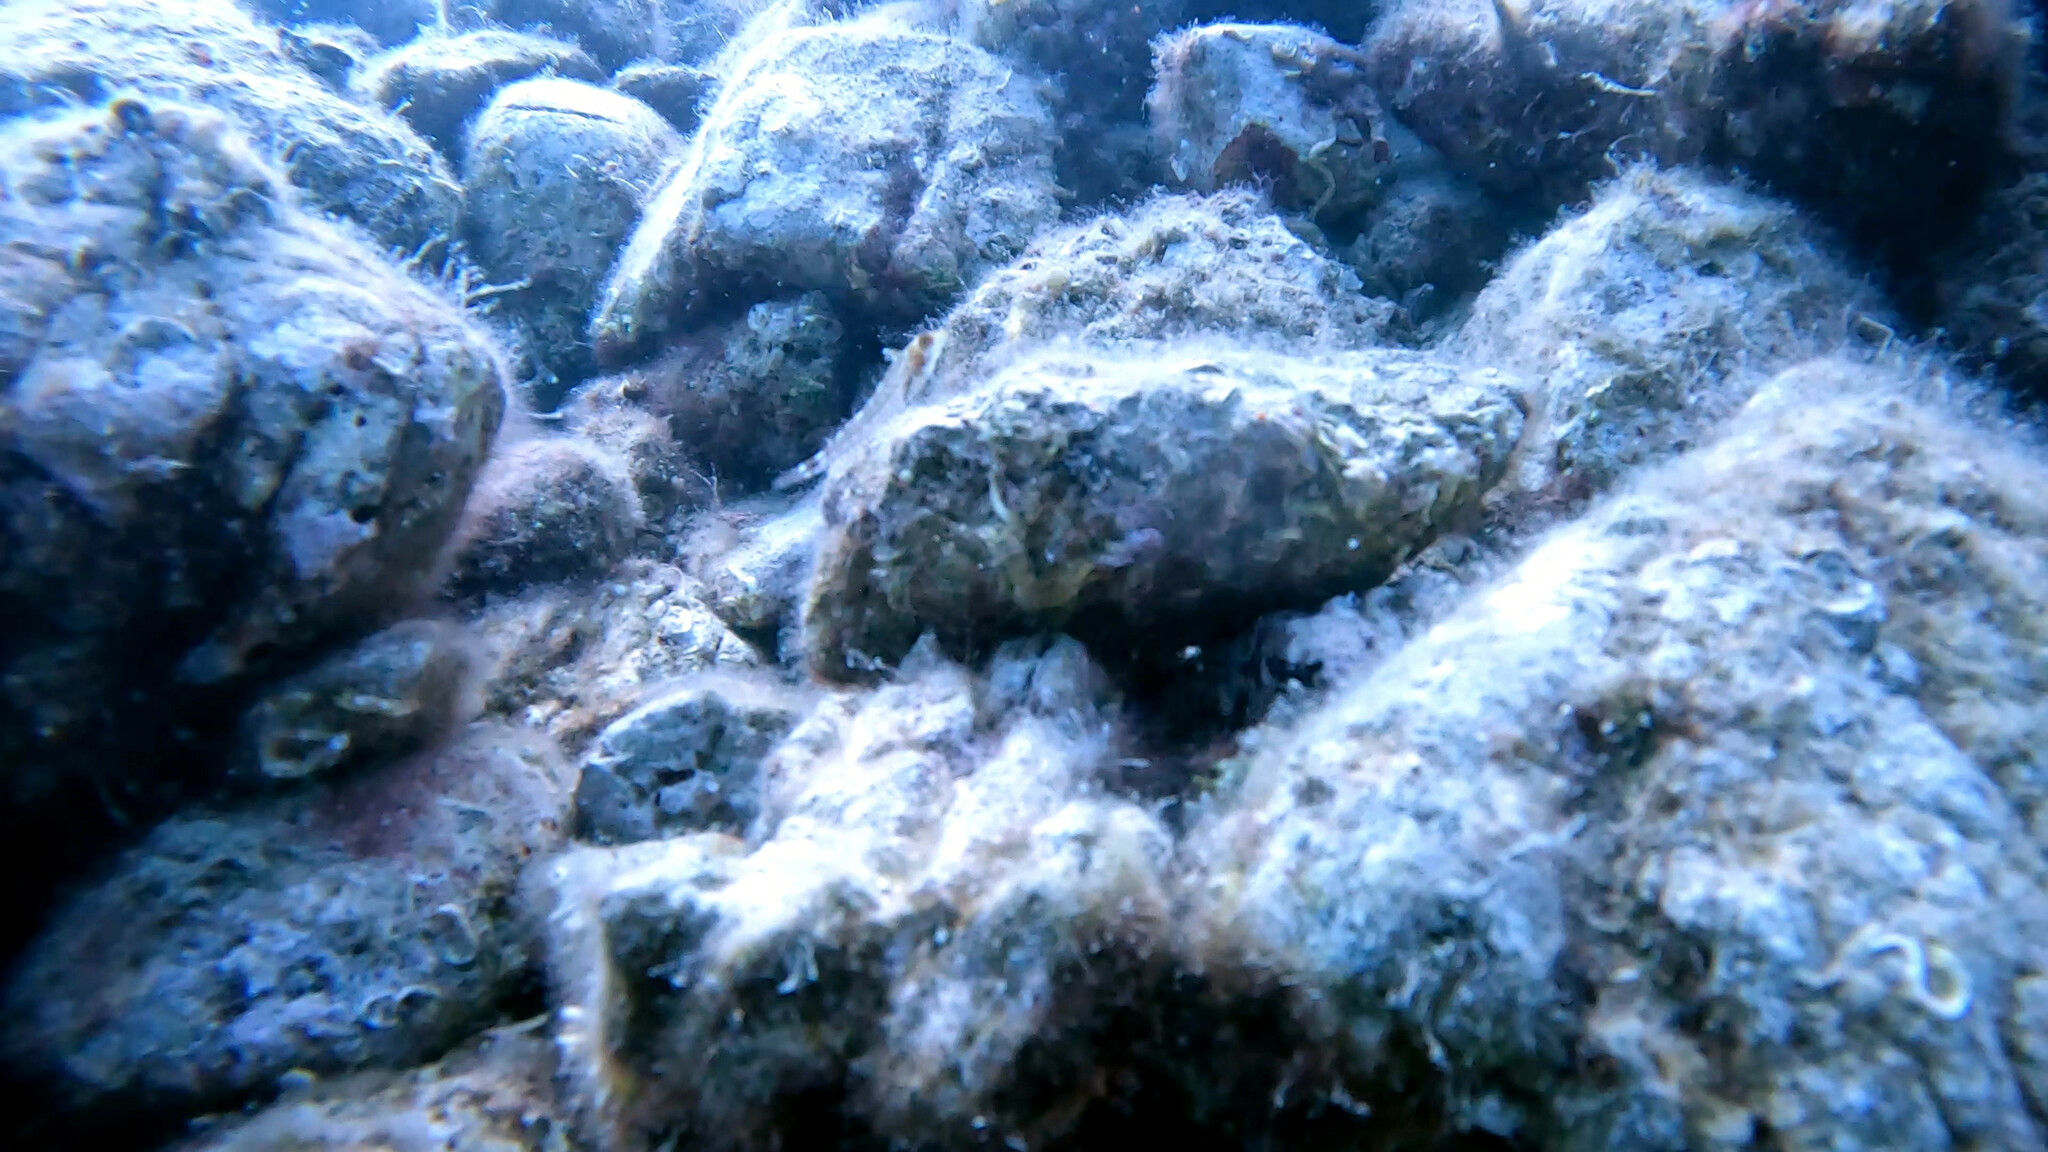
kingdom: Animalia
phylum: Chordata
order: Perciformes
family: Tripterygiidae
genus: Tripterygion
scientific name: Tripterygion delaisi
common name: Black-face blenny
